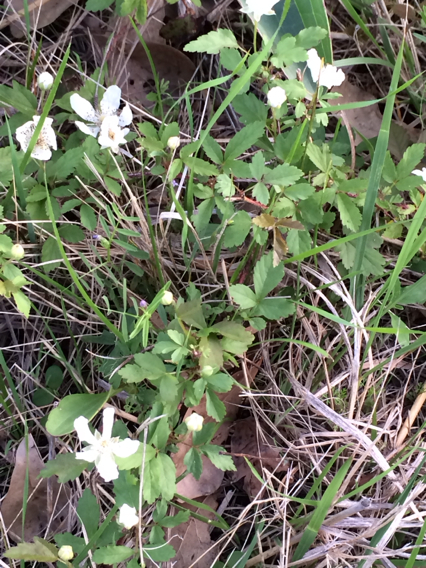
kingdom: Plantae
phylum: Tracheophyta
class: Magnoliopsida
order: Rosales
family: Rosaceae
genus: Rubus
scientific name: Rubus trivialis
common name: Southern dewberry
